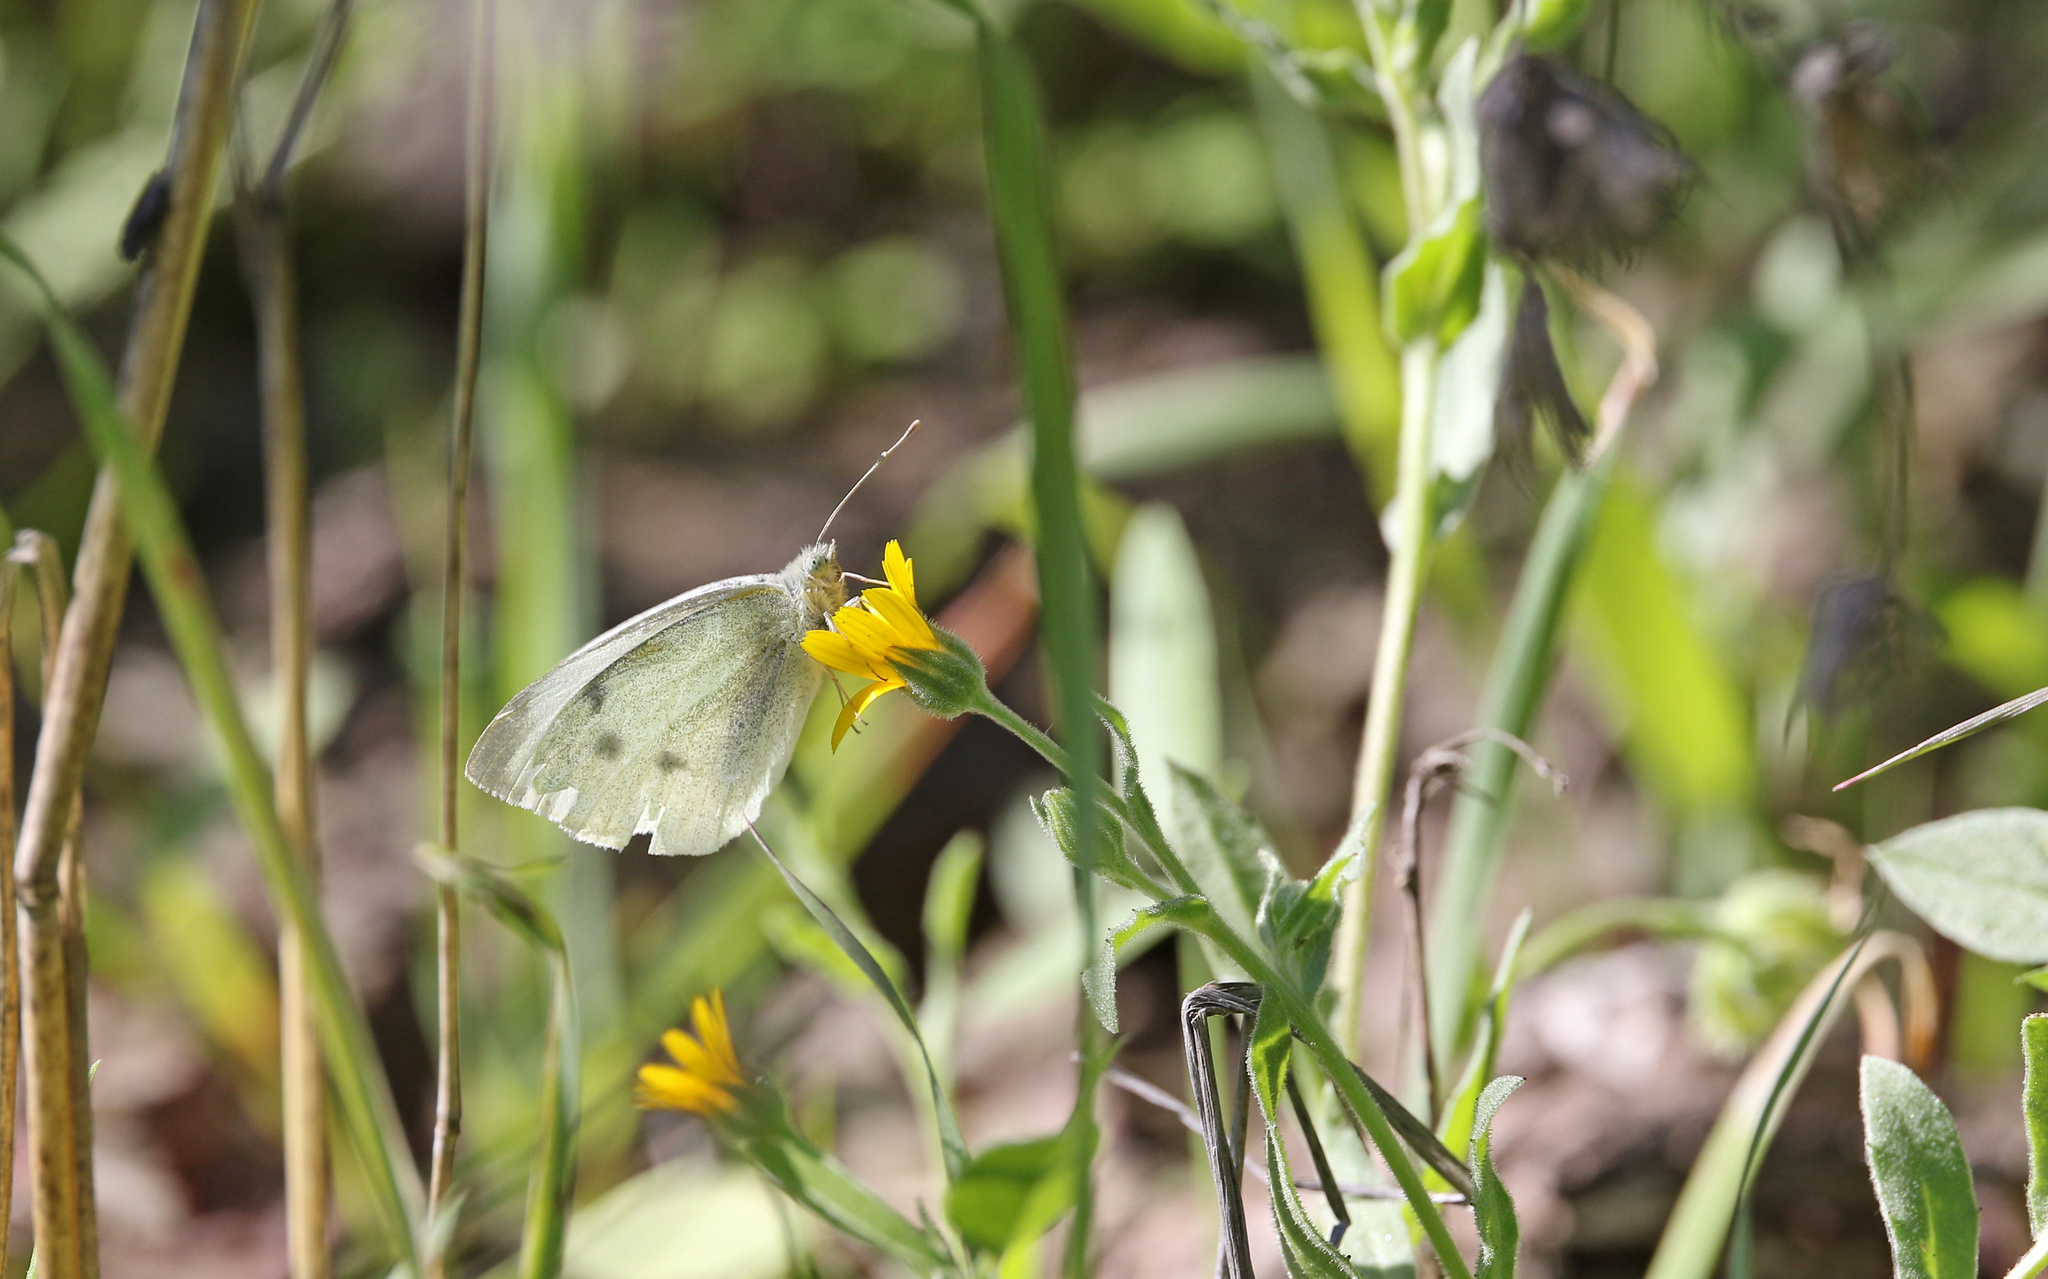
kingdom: Animalia
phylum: Arthropoda
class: Insecta
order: Lepidoptera
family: Pieridae
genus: Pieris
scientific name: Pieris rapae
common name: Small white
